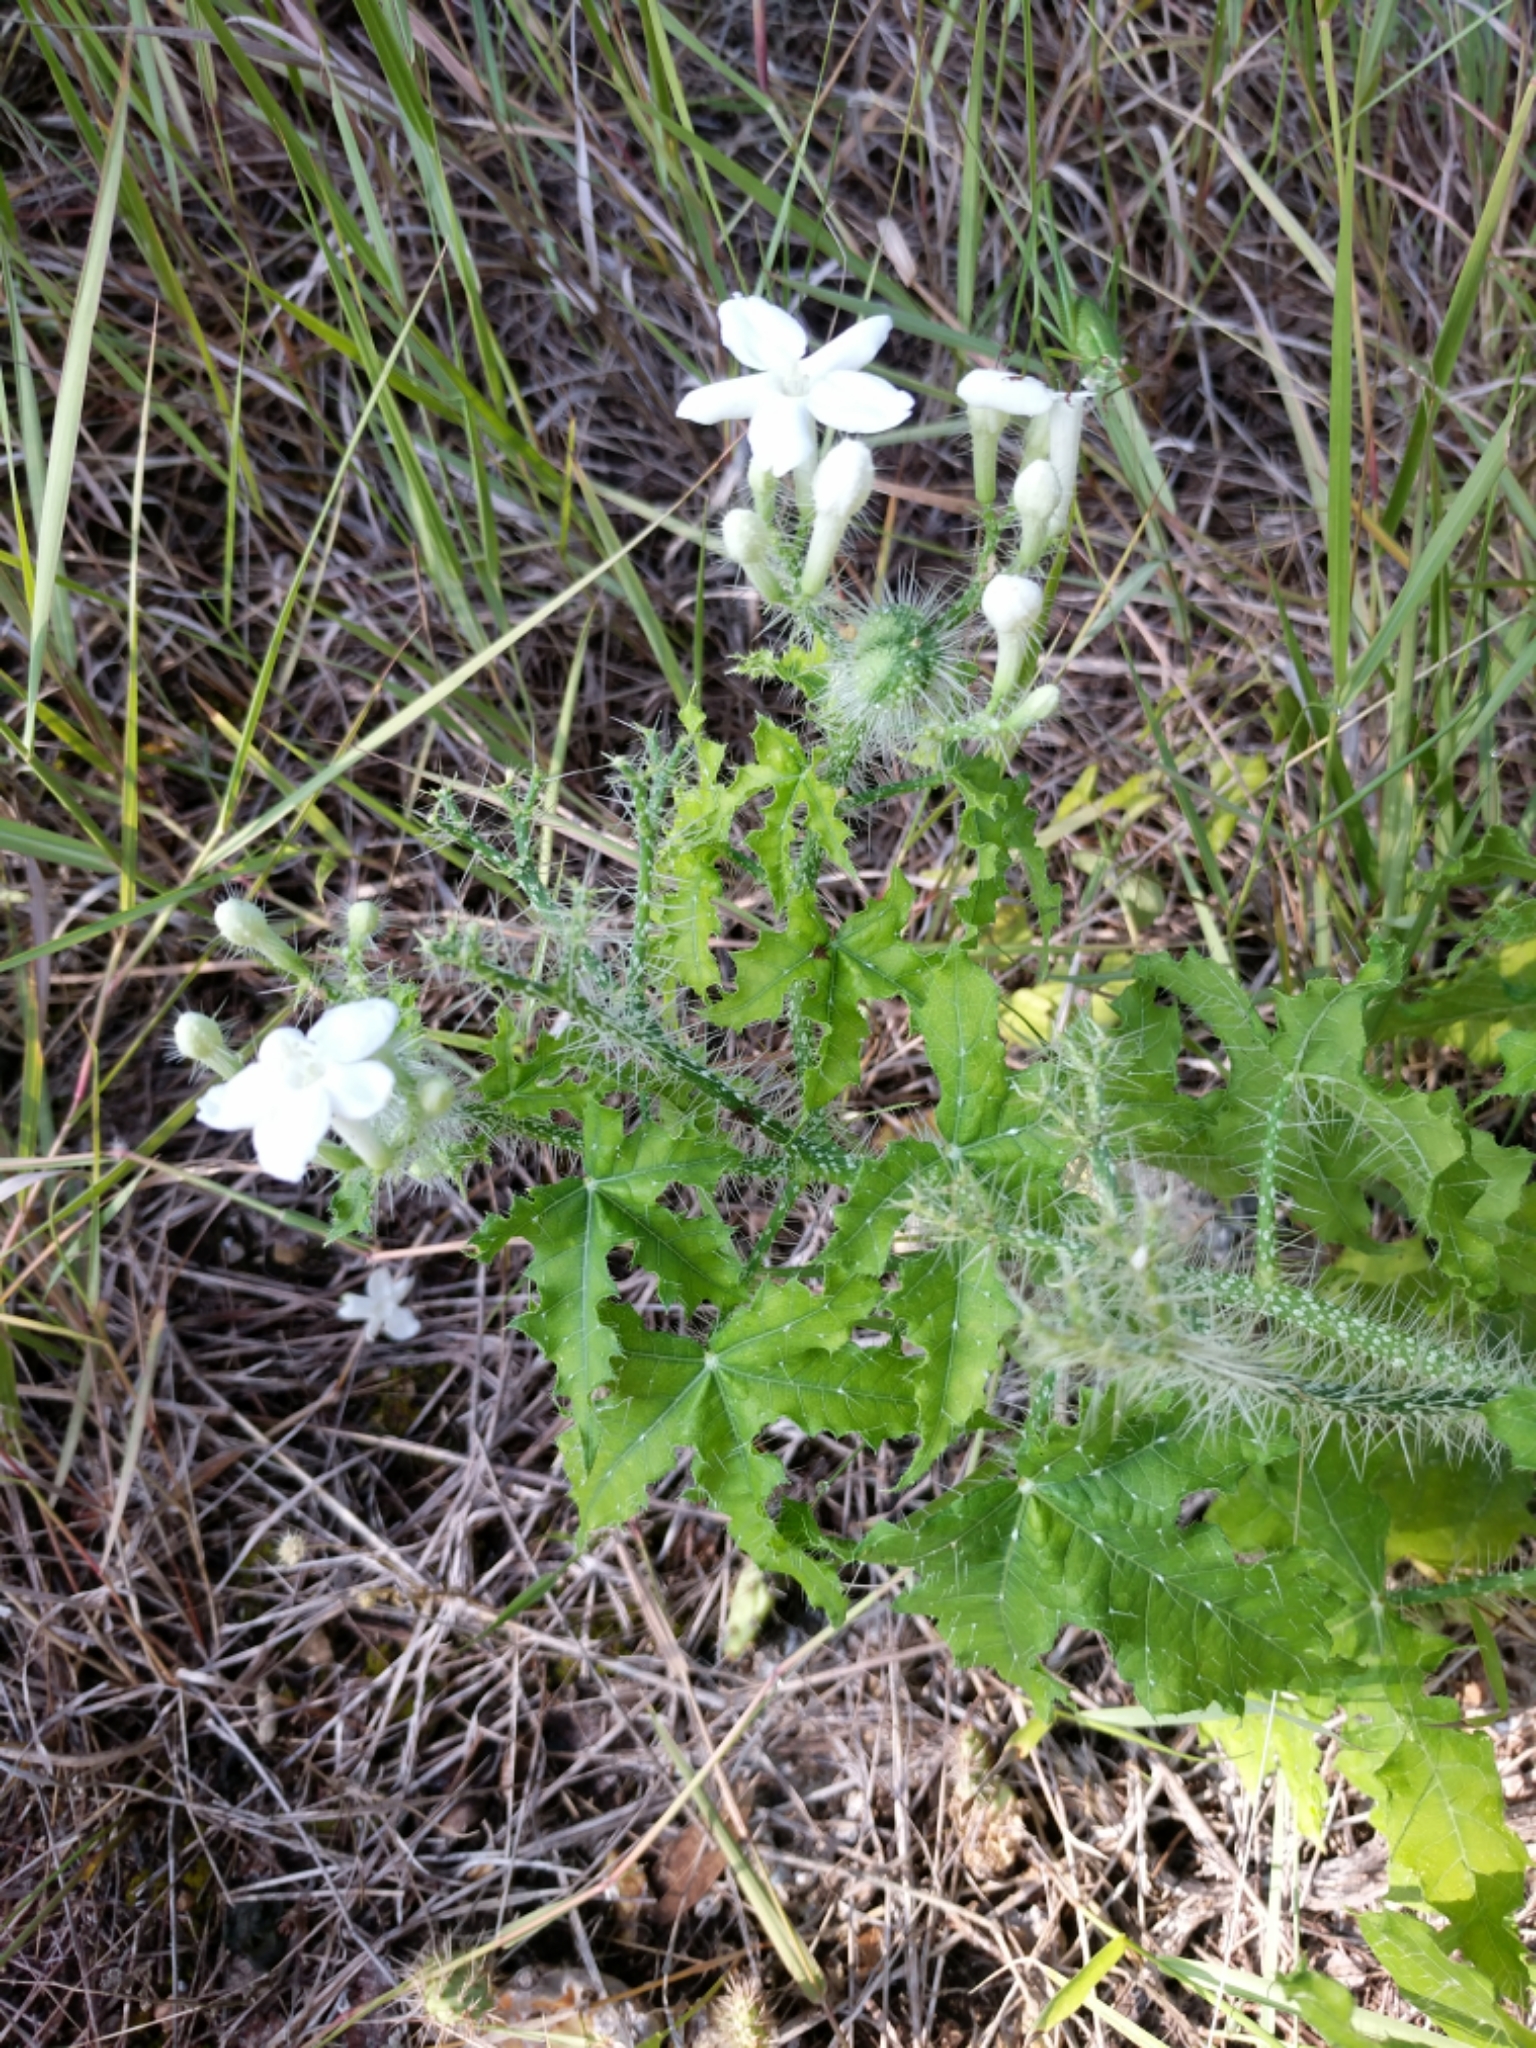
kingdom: Plantae
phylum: Tracheophyta
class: Magnoliopsida
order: Malpighiales
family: Euphorbiaceae
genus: Cnidoscolus
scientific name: Cnidoscolus texanus
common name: Texas bull-nettle
